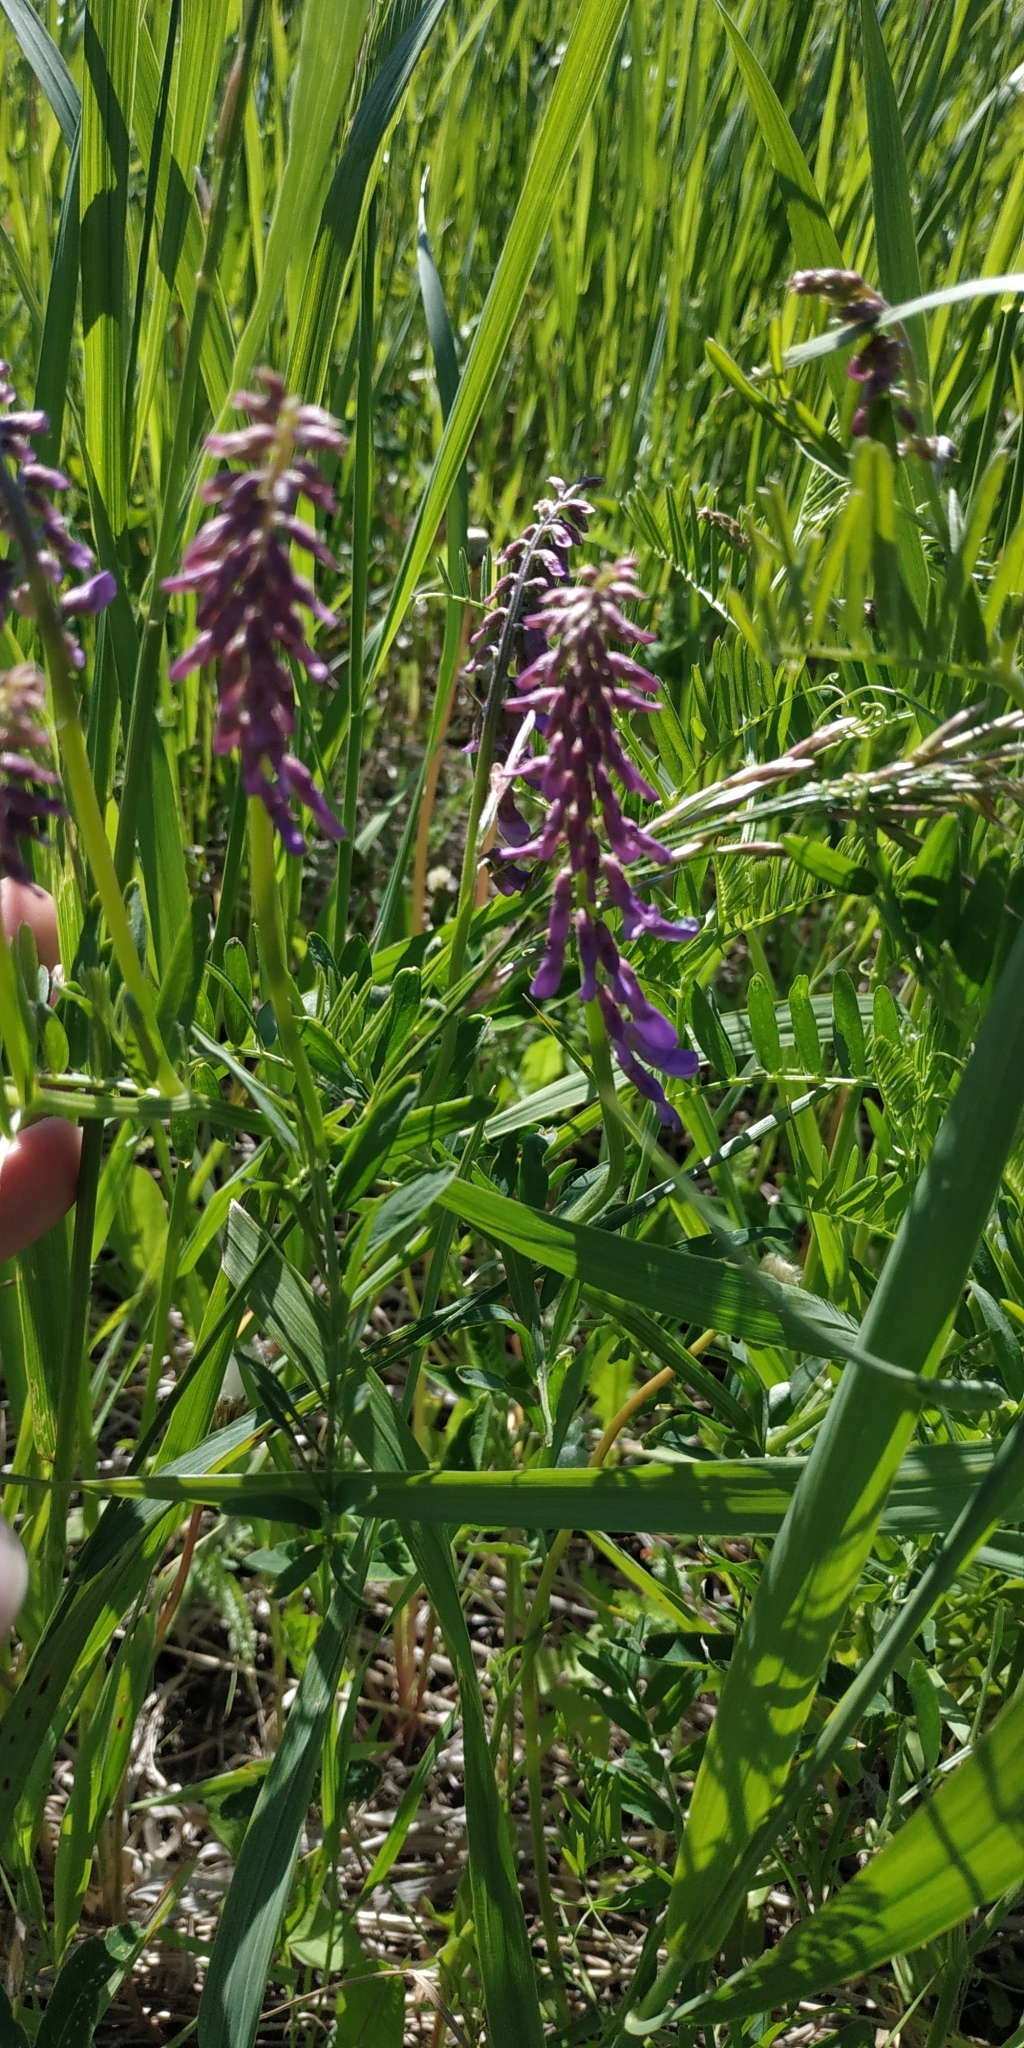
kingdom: Plantae
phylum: Tracheophyta
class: Magnoliopsida
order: Fabales
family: Fabaceae
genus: Vicia
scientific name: Vicia cracca
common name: Bird vetch
